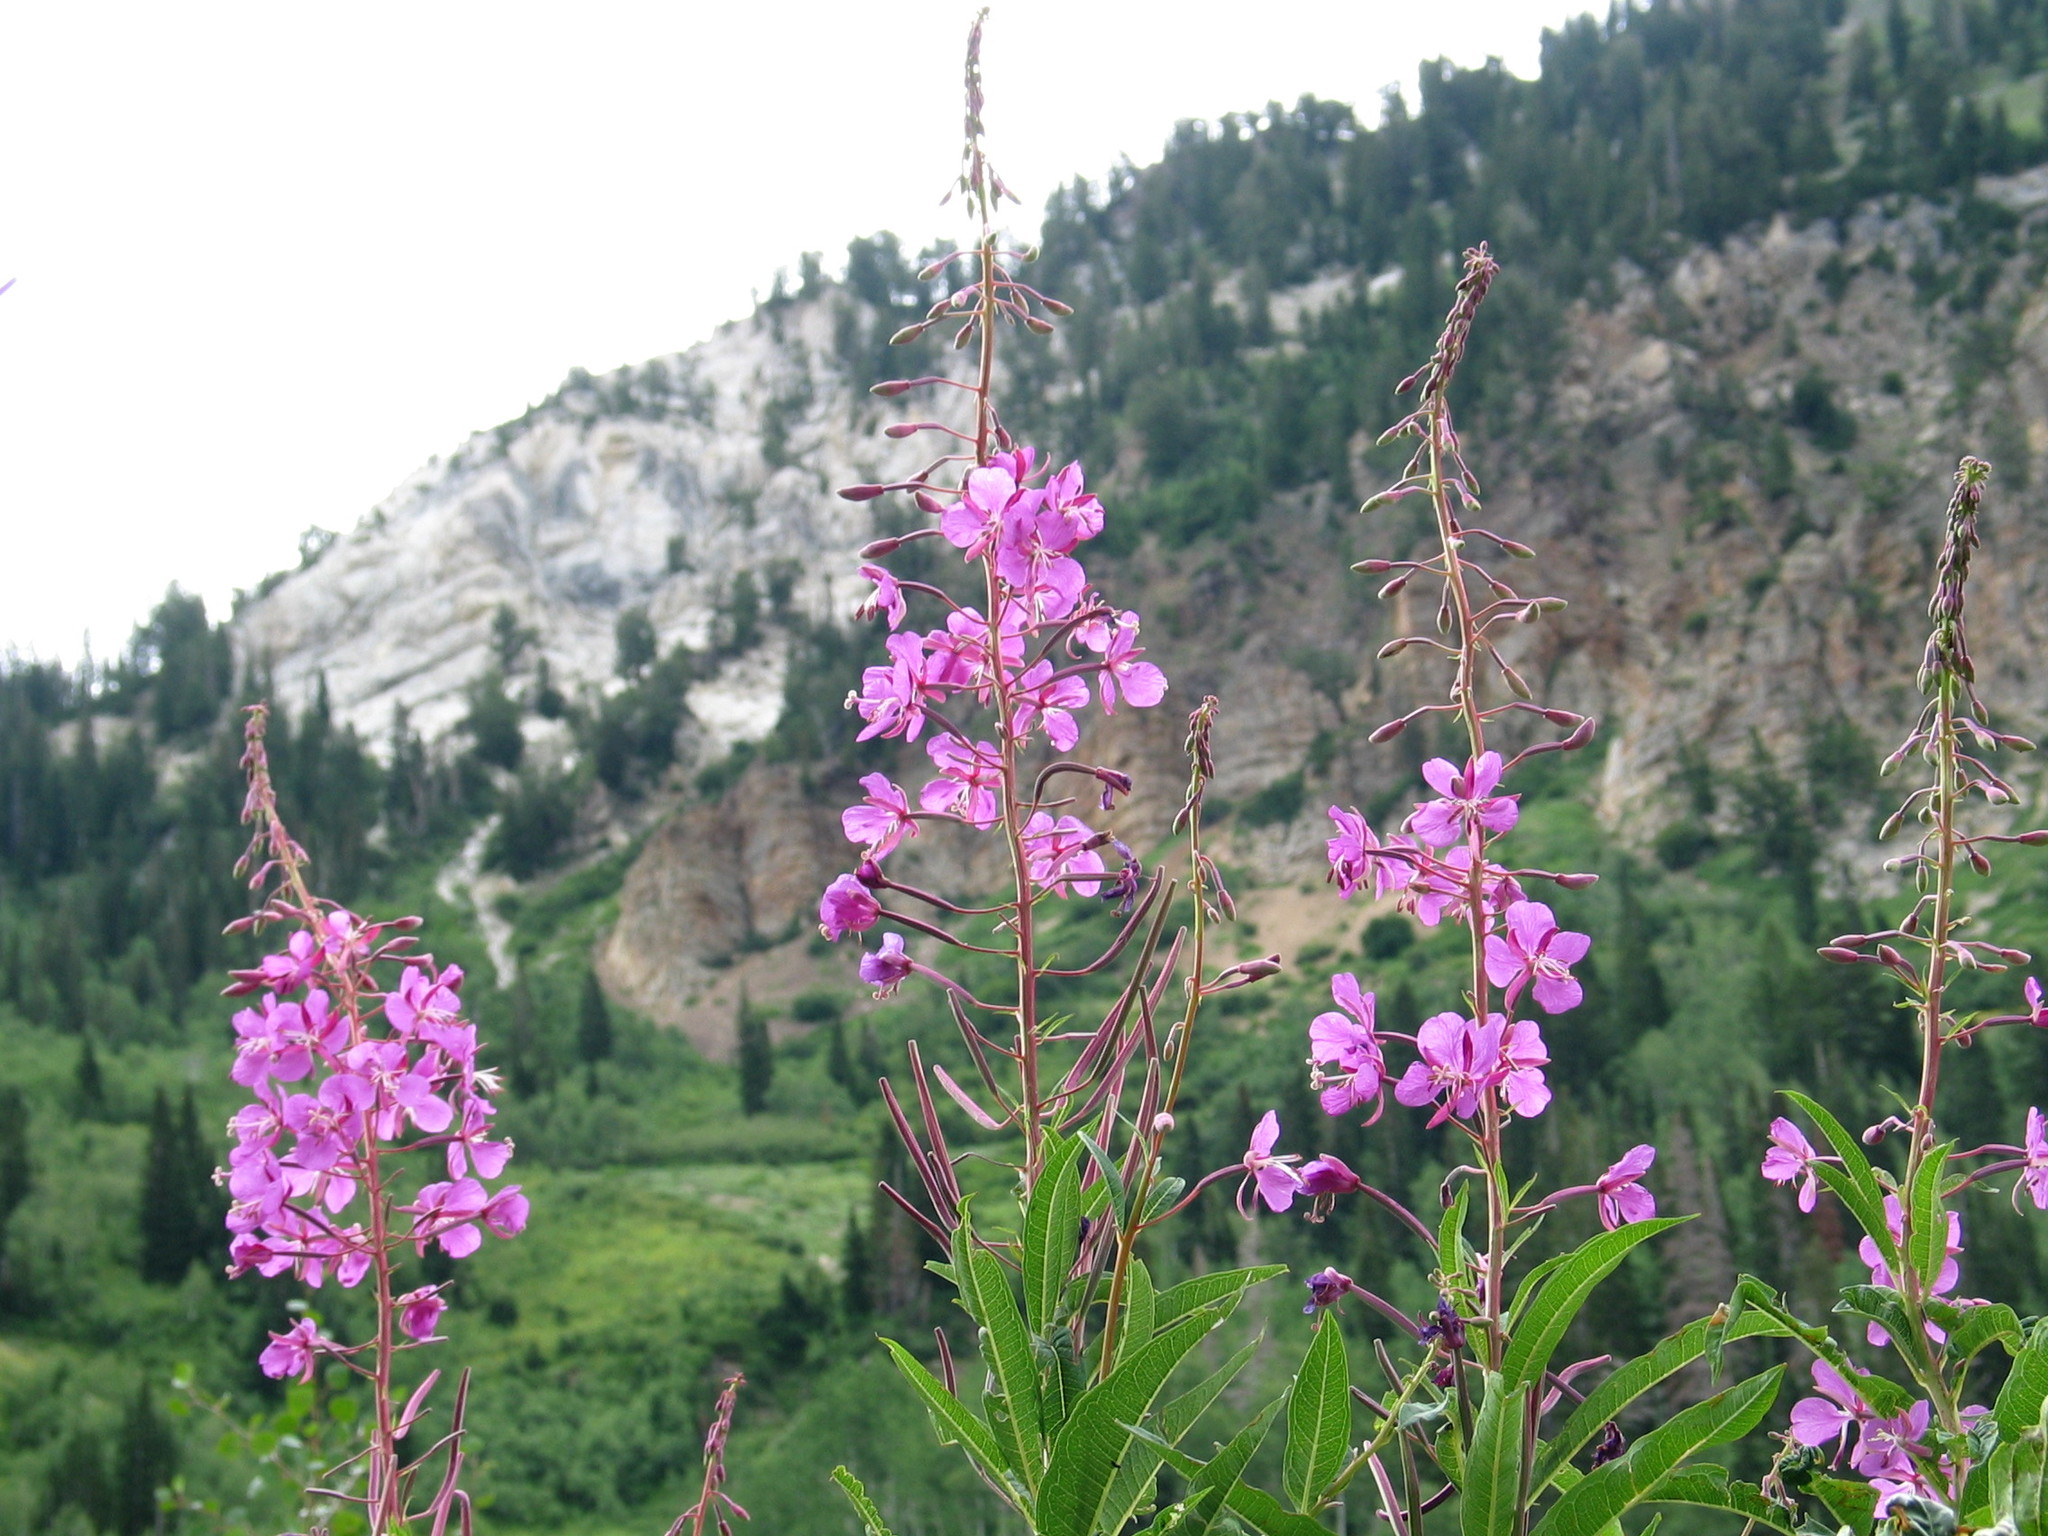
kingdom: Plantae
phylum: Tracheophyta
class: Magnoliopsida
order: Myrtales
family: Onagraceae
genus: Chamaenerion
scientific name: Chamaenerion angustifolium
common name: Fireweed
